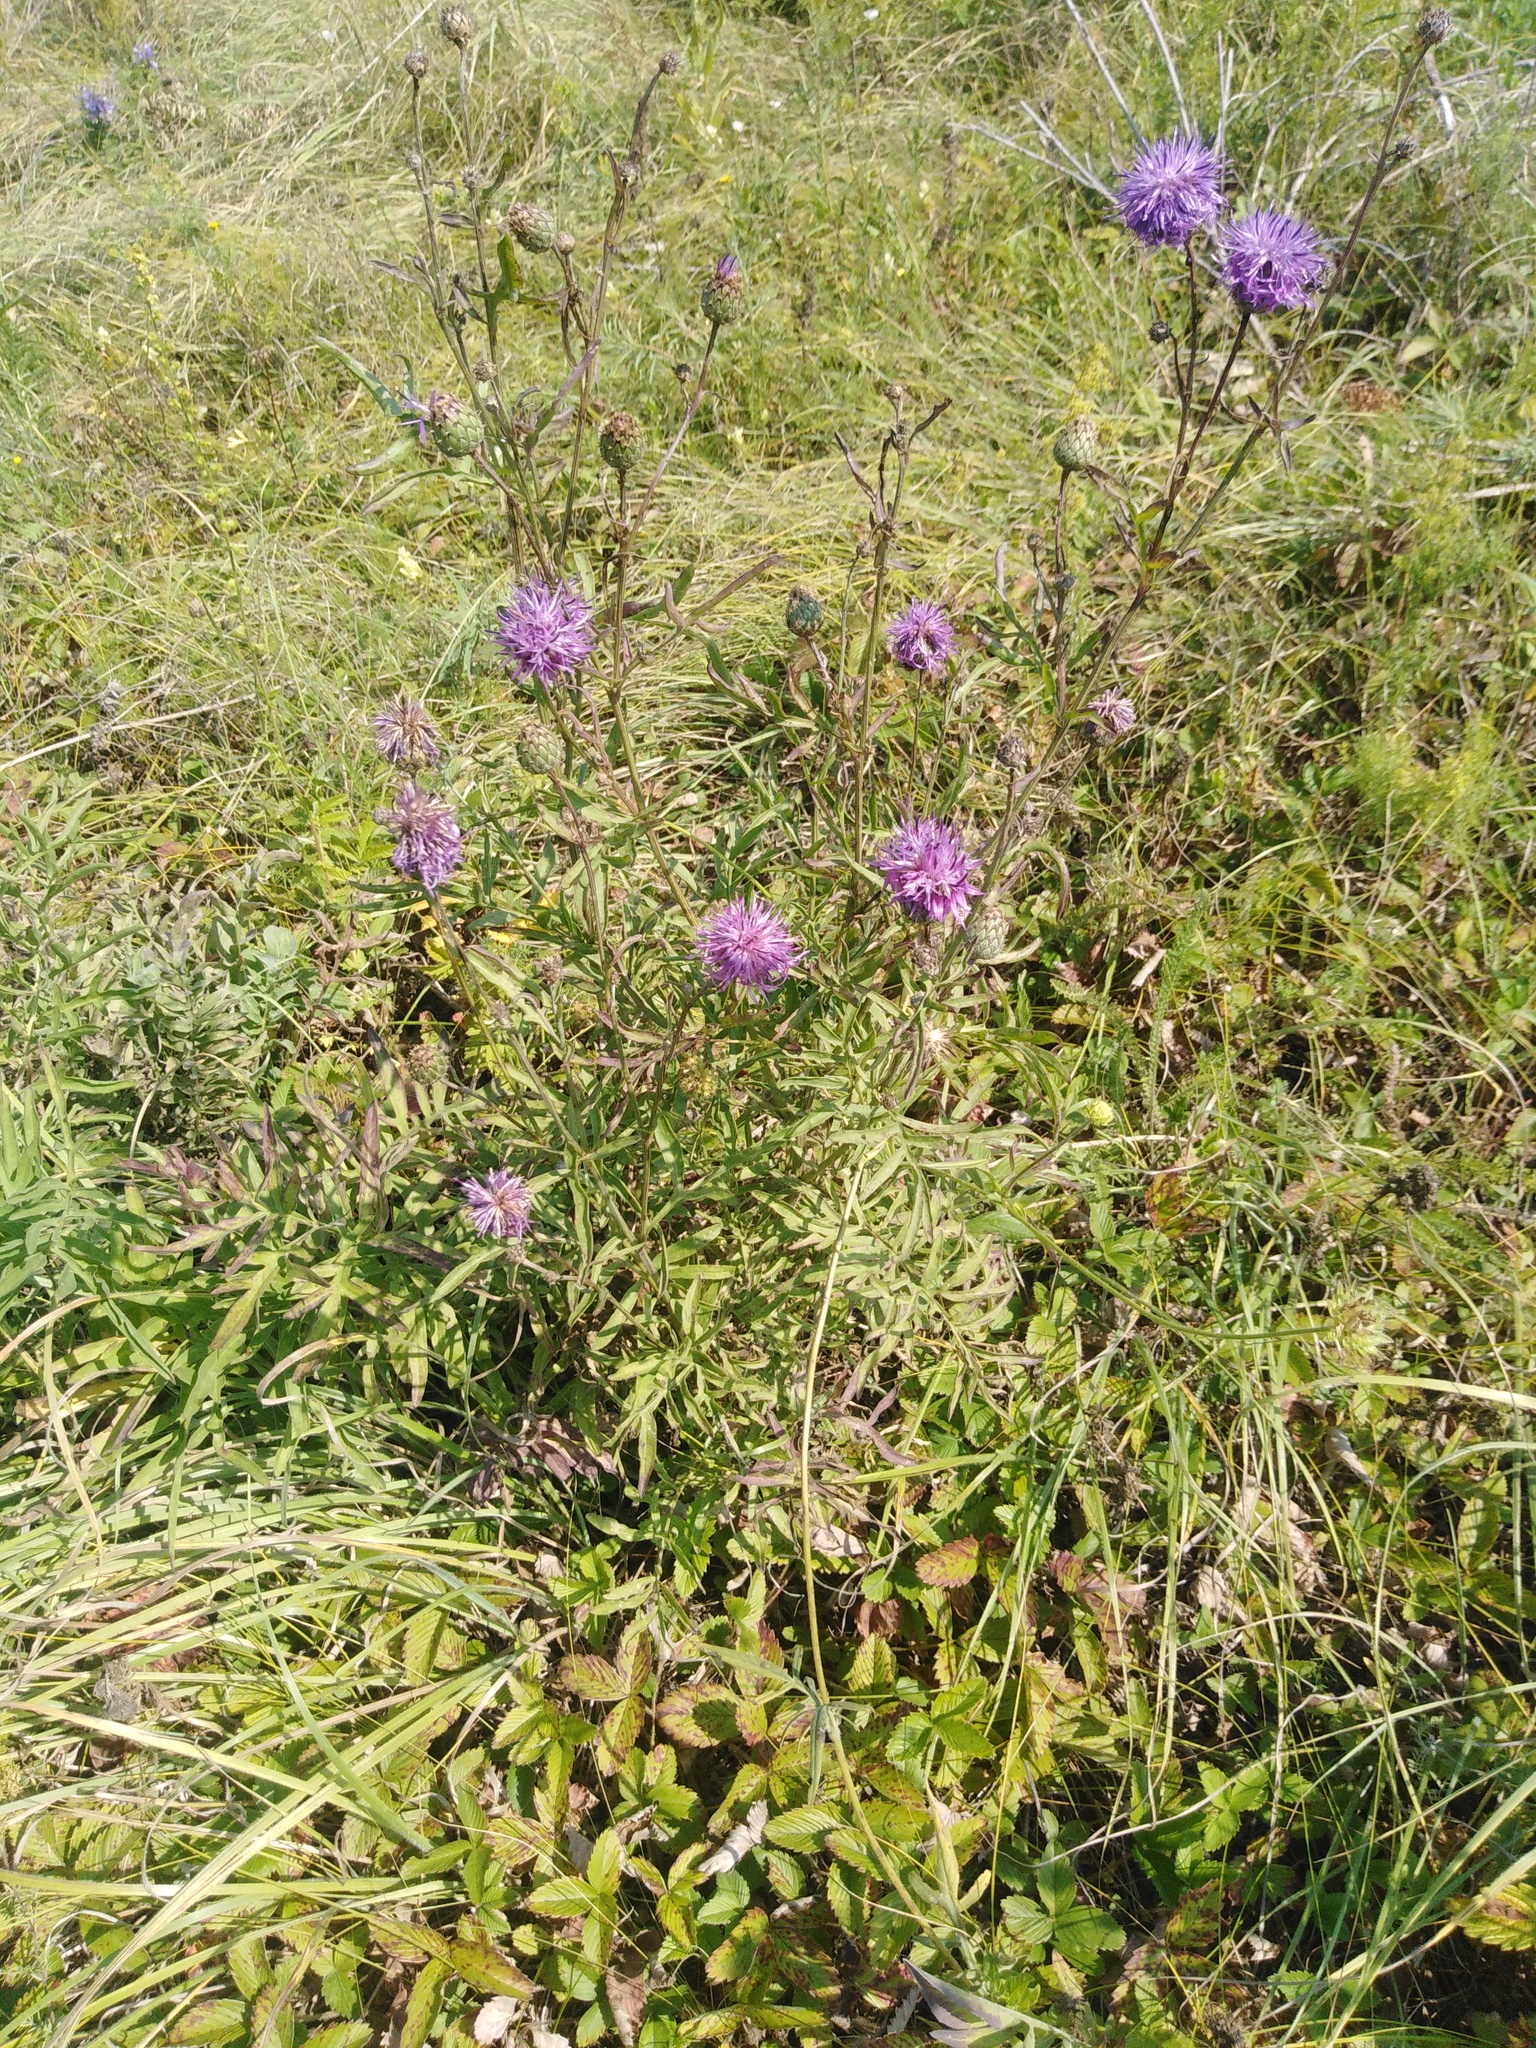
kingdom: Plantae
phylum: Tracheophyta
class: Magnoliopsida
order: Asterales
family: Asteraceae
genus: Centaurea
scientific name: Centaurea scabiosa
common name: Greater knapweed
